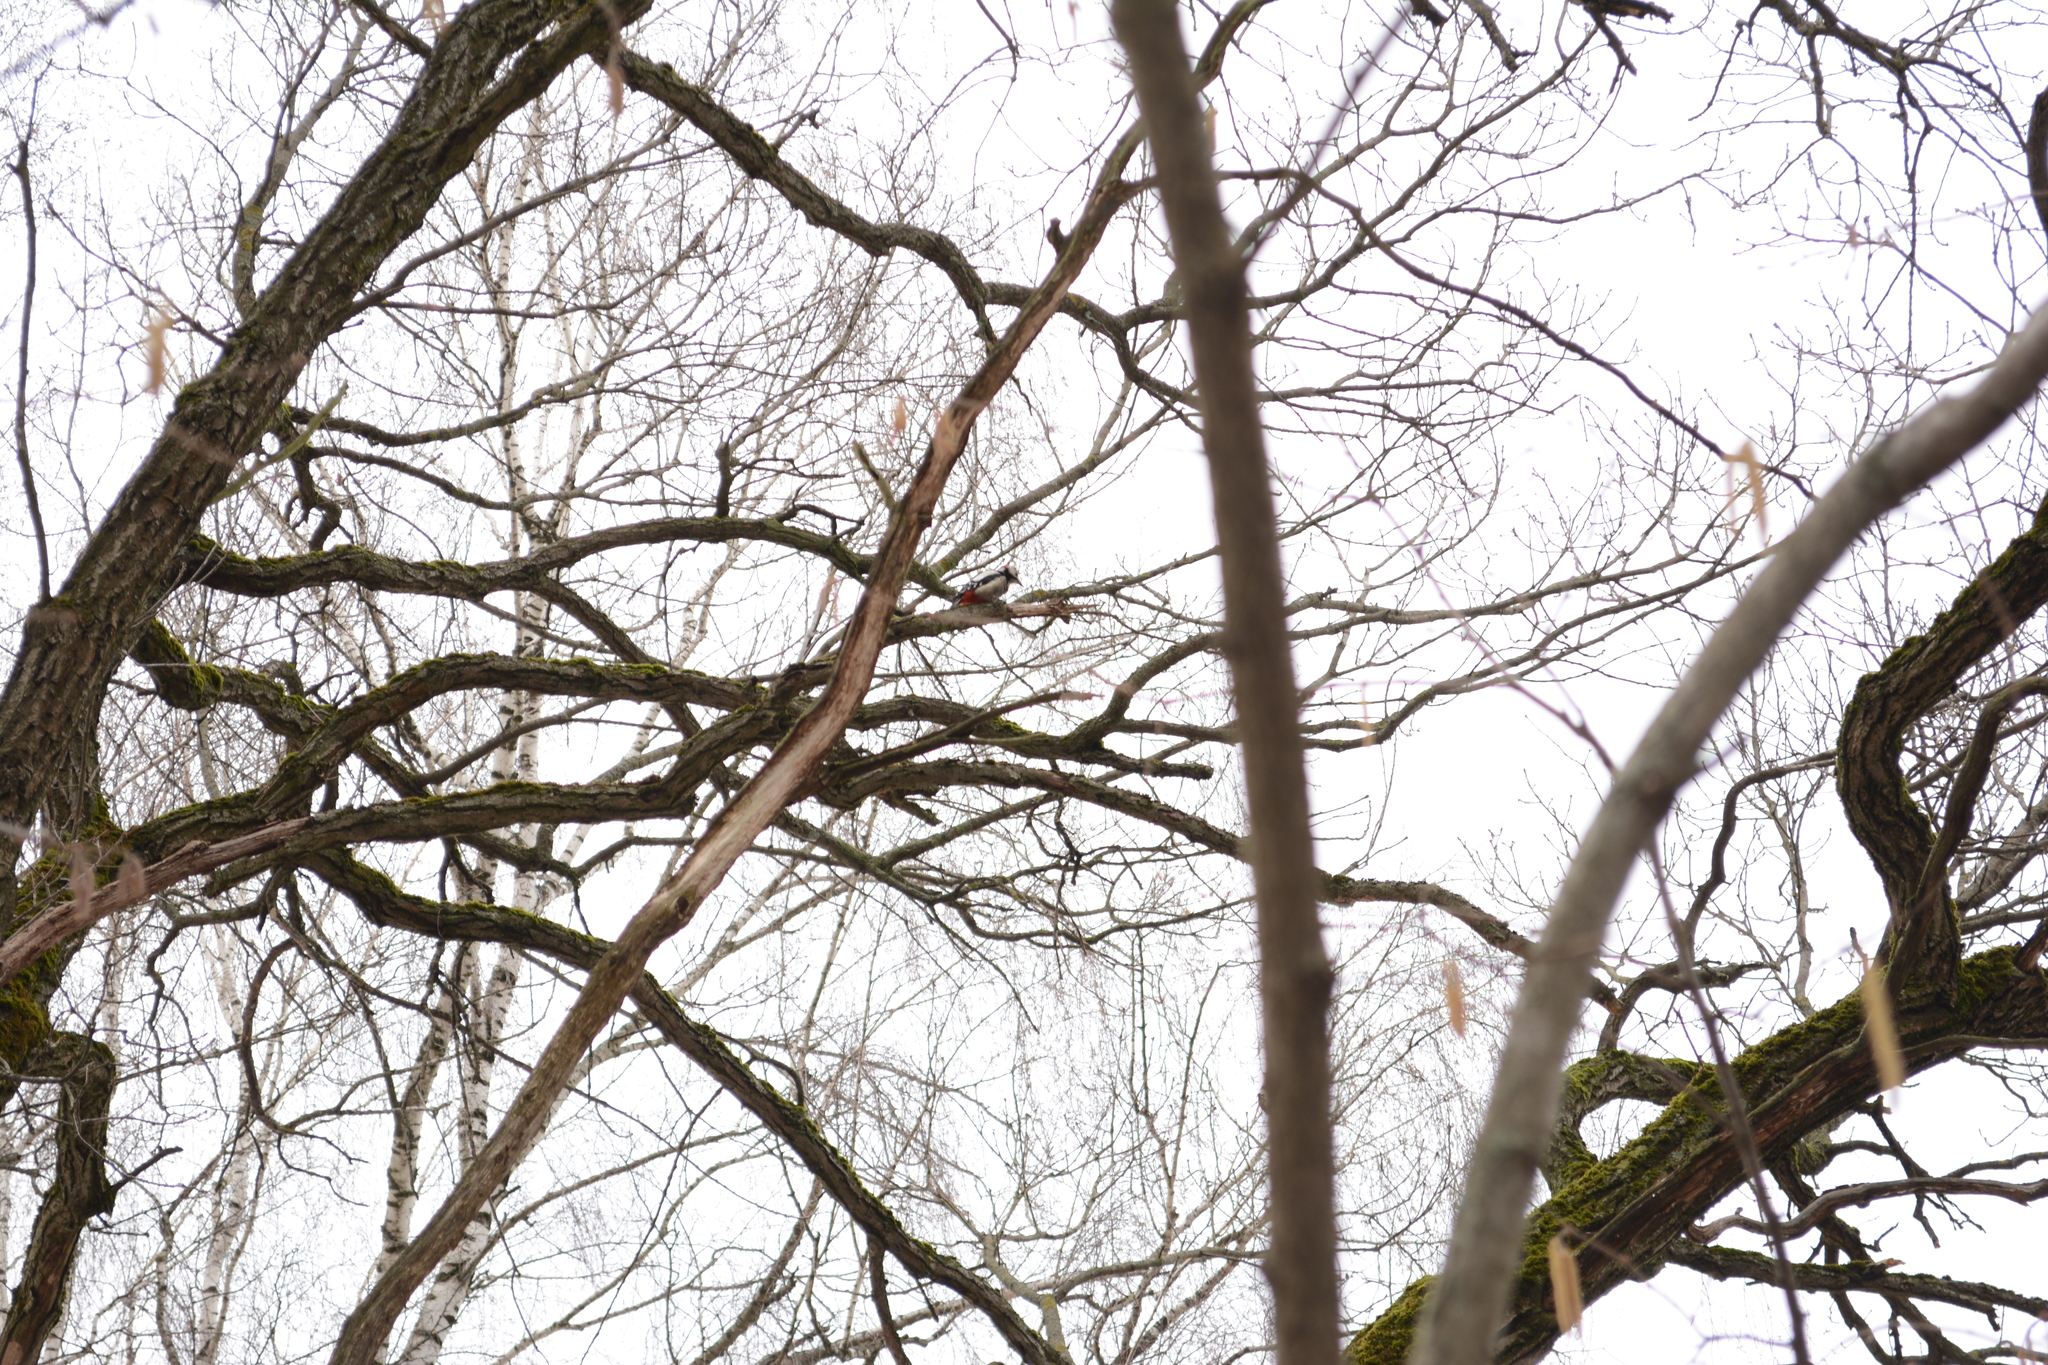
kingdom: Animalia
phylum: Chordata
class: Aves
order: Piciformes
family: Picidae
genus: Dendrocopos
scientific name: Dendrocopos major
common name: Great spotted woodpecker
